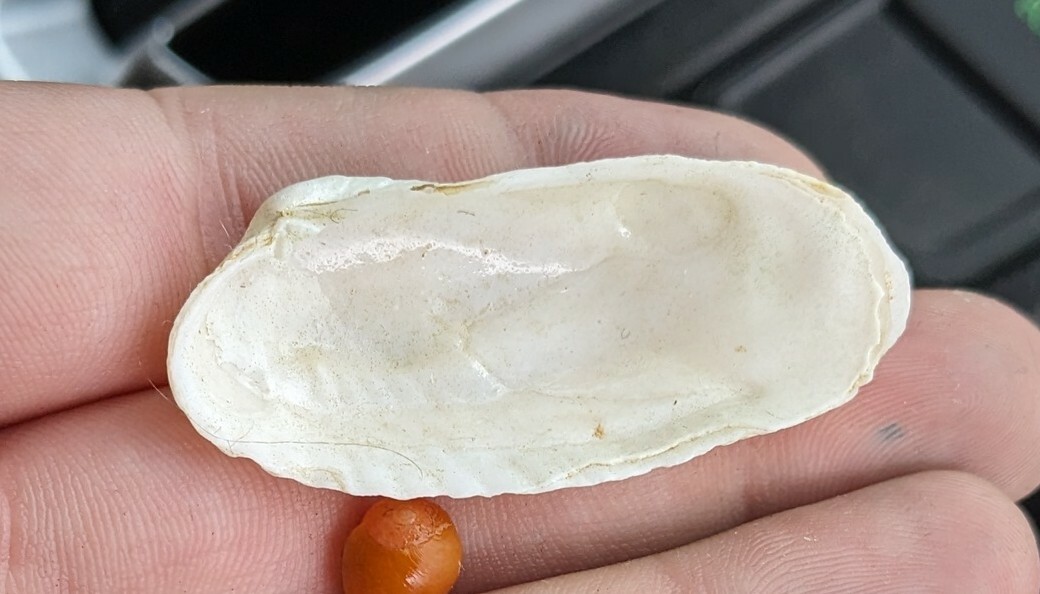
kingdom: Animalia
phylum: Mollusca
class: Bivalvia
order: Venerida
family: Veneridae
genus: Petricolaria
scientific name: Petricolaria pholadiformis
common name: American piddock
